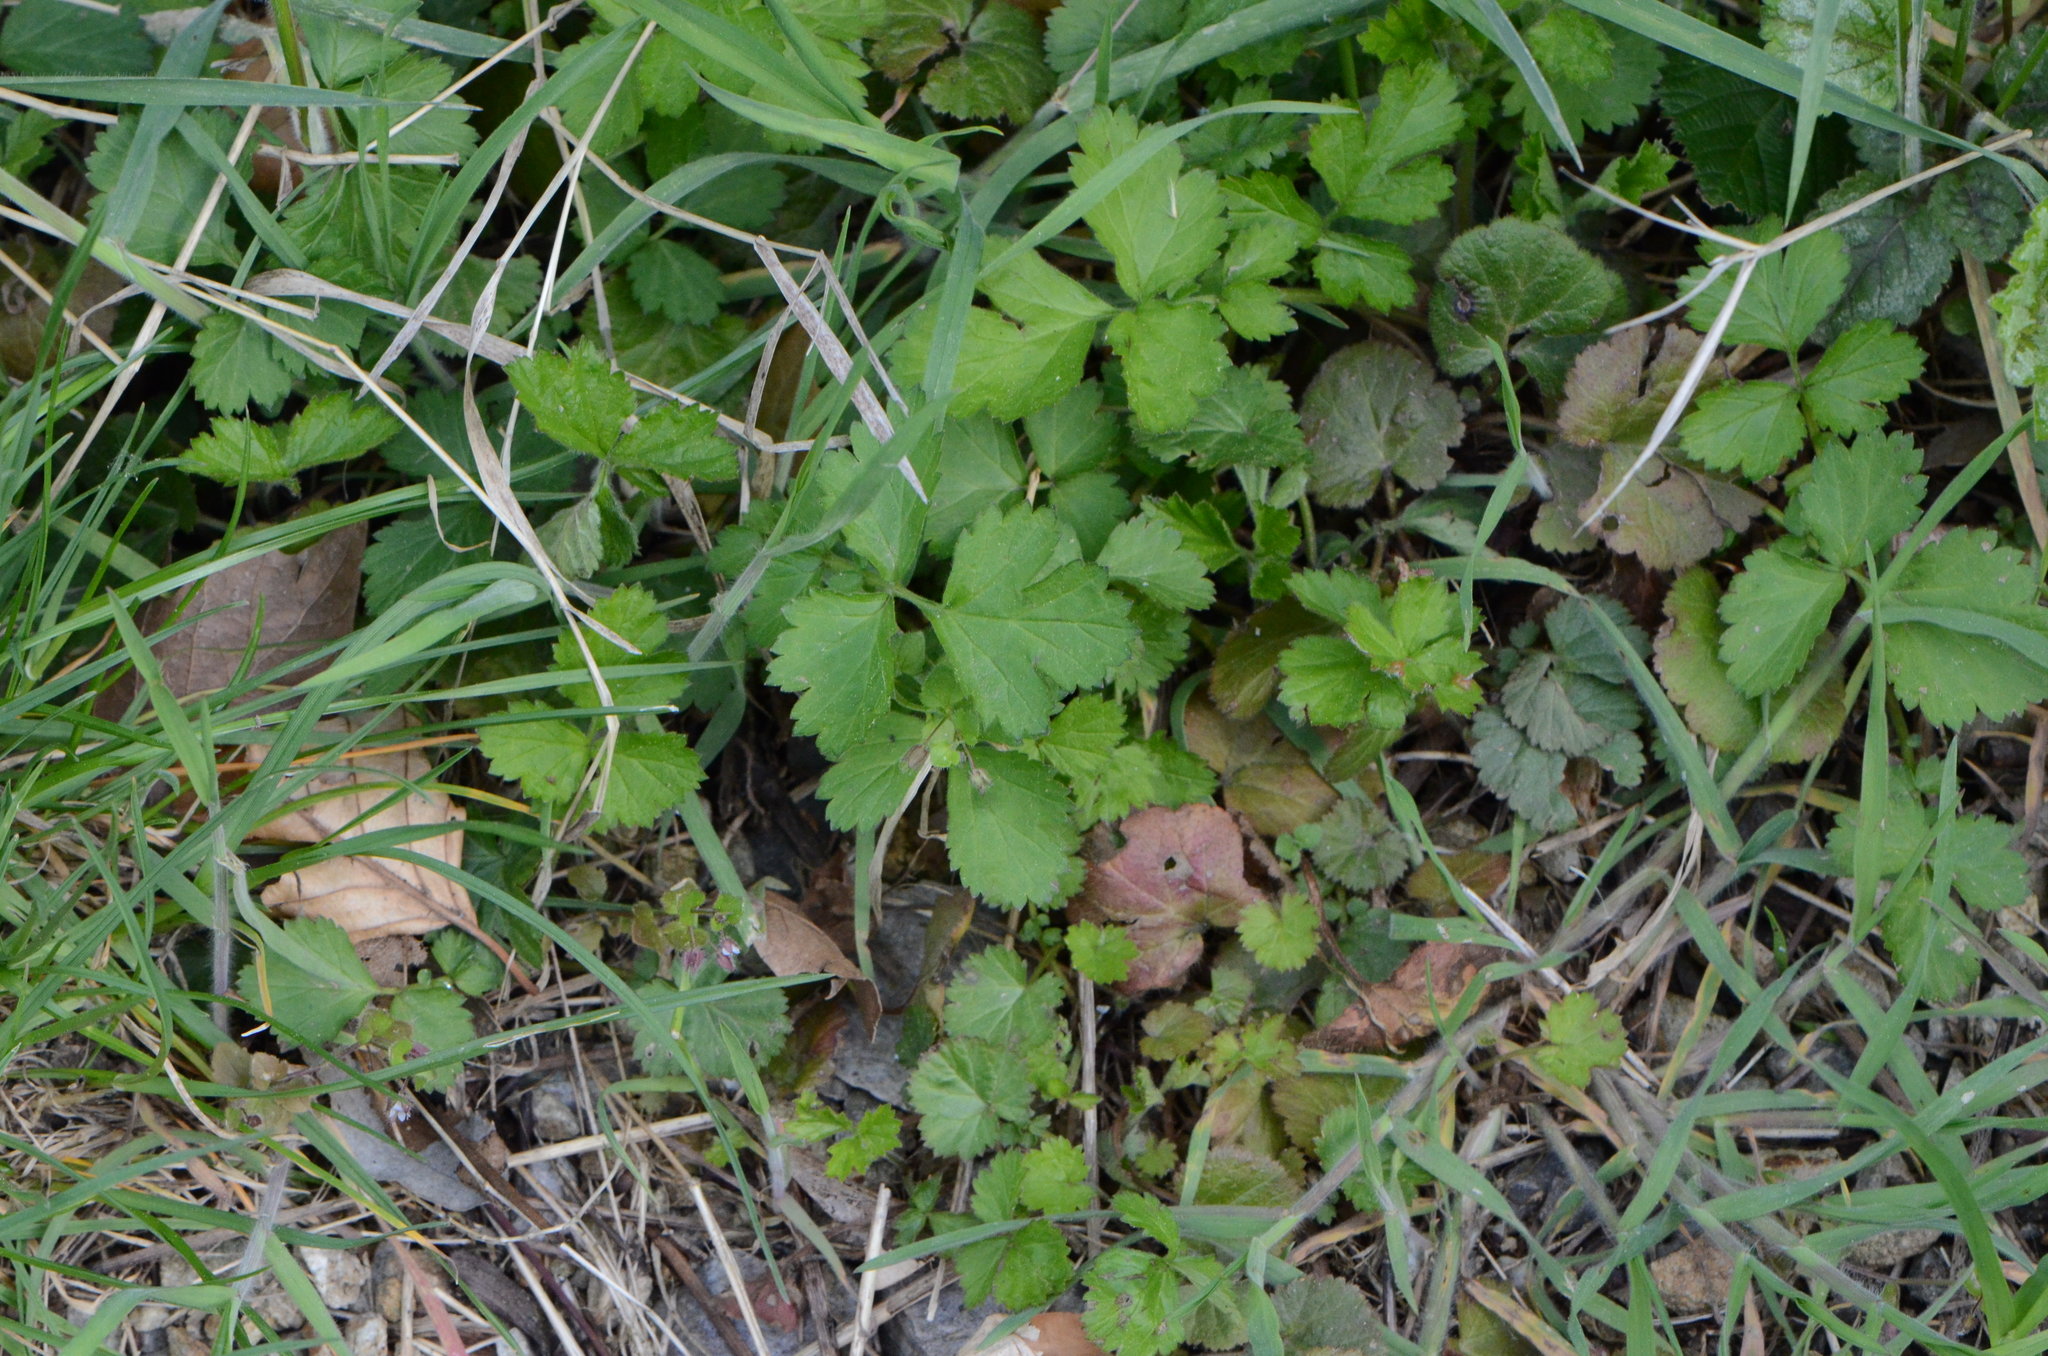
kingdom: Plantae
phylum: Tracheophyta
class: Magnoliopsida
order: Rosales
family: Rosaceae
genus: Geum
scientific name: Geum urbanum
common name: Wood avens
